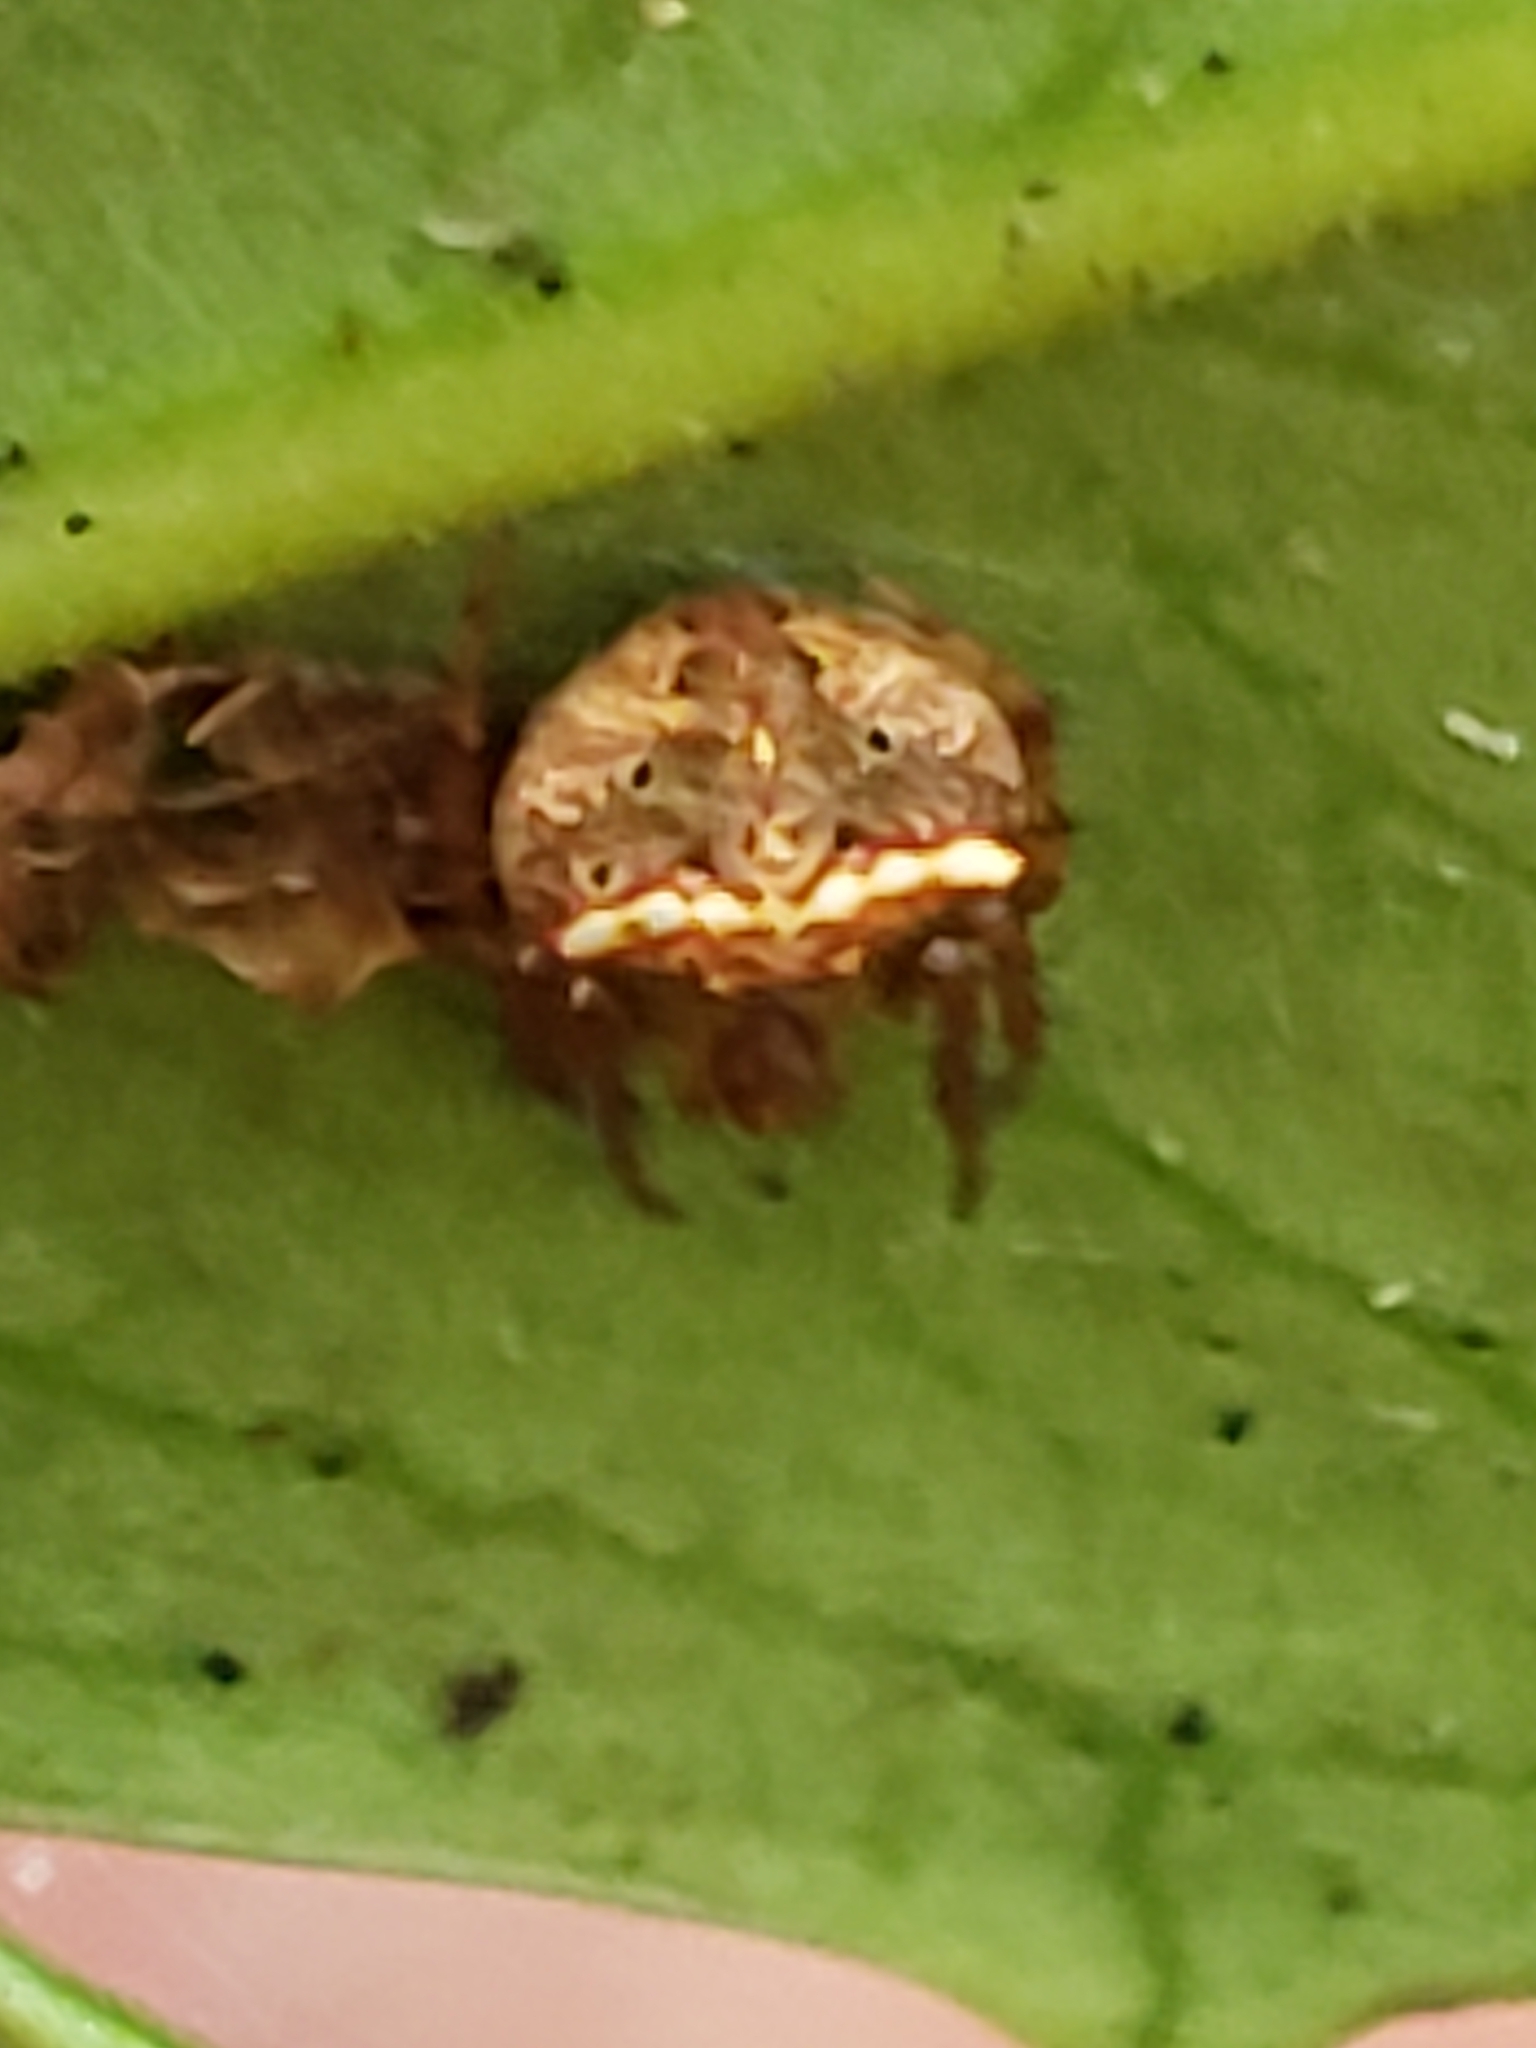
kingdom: Animalia
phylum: Arthropoda
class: Arachnida
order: Araneae
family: Araneidae
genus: Araneus
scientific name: Araneus miniatus
